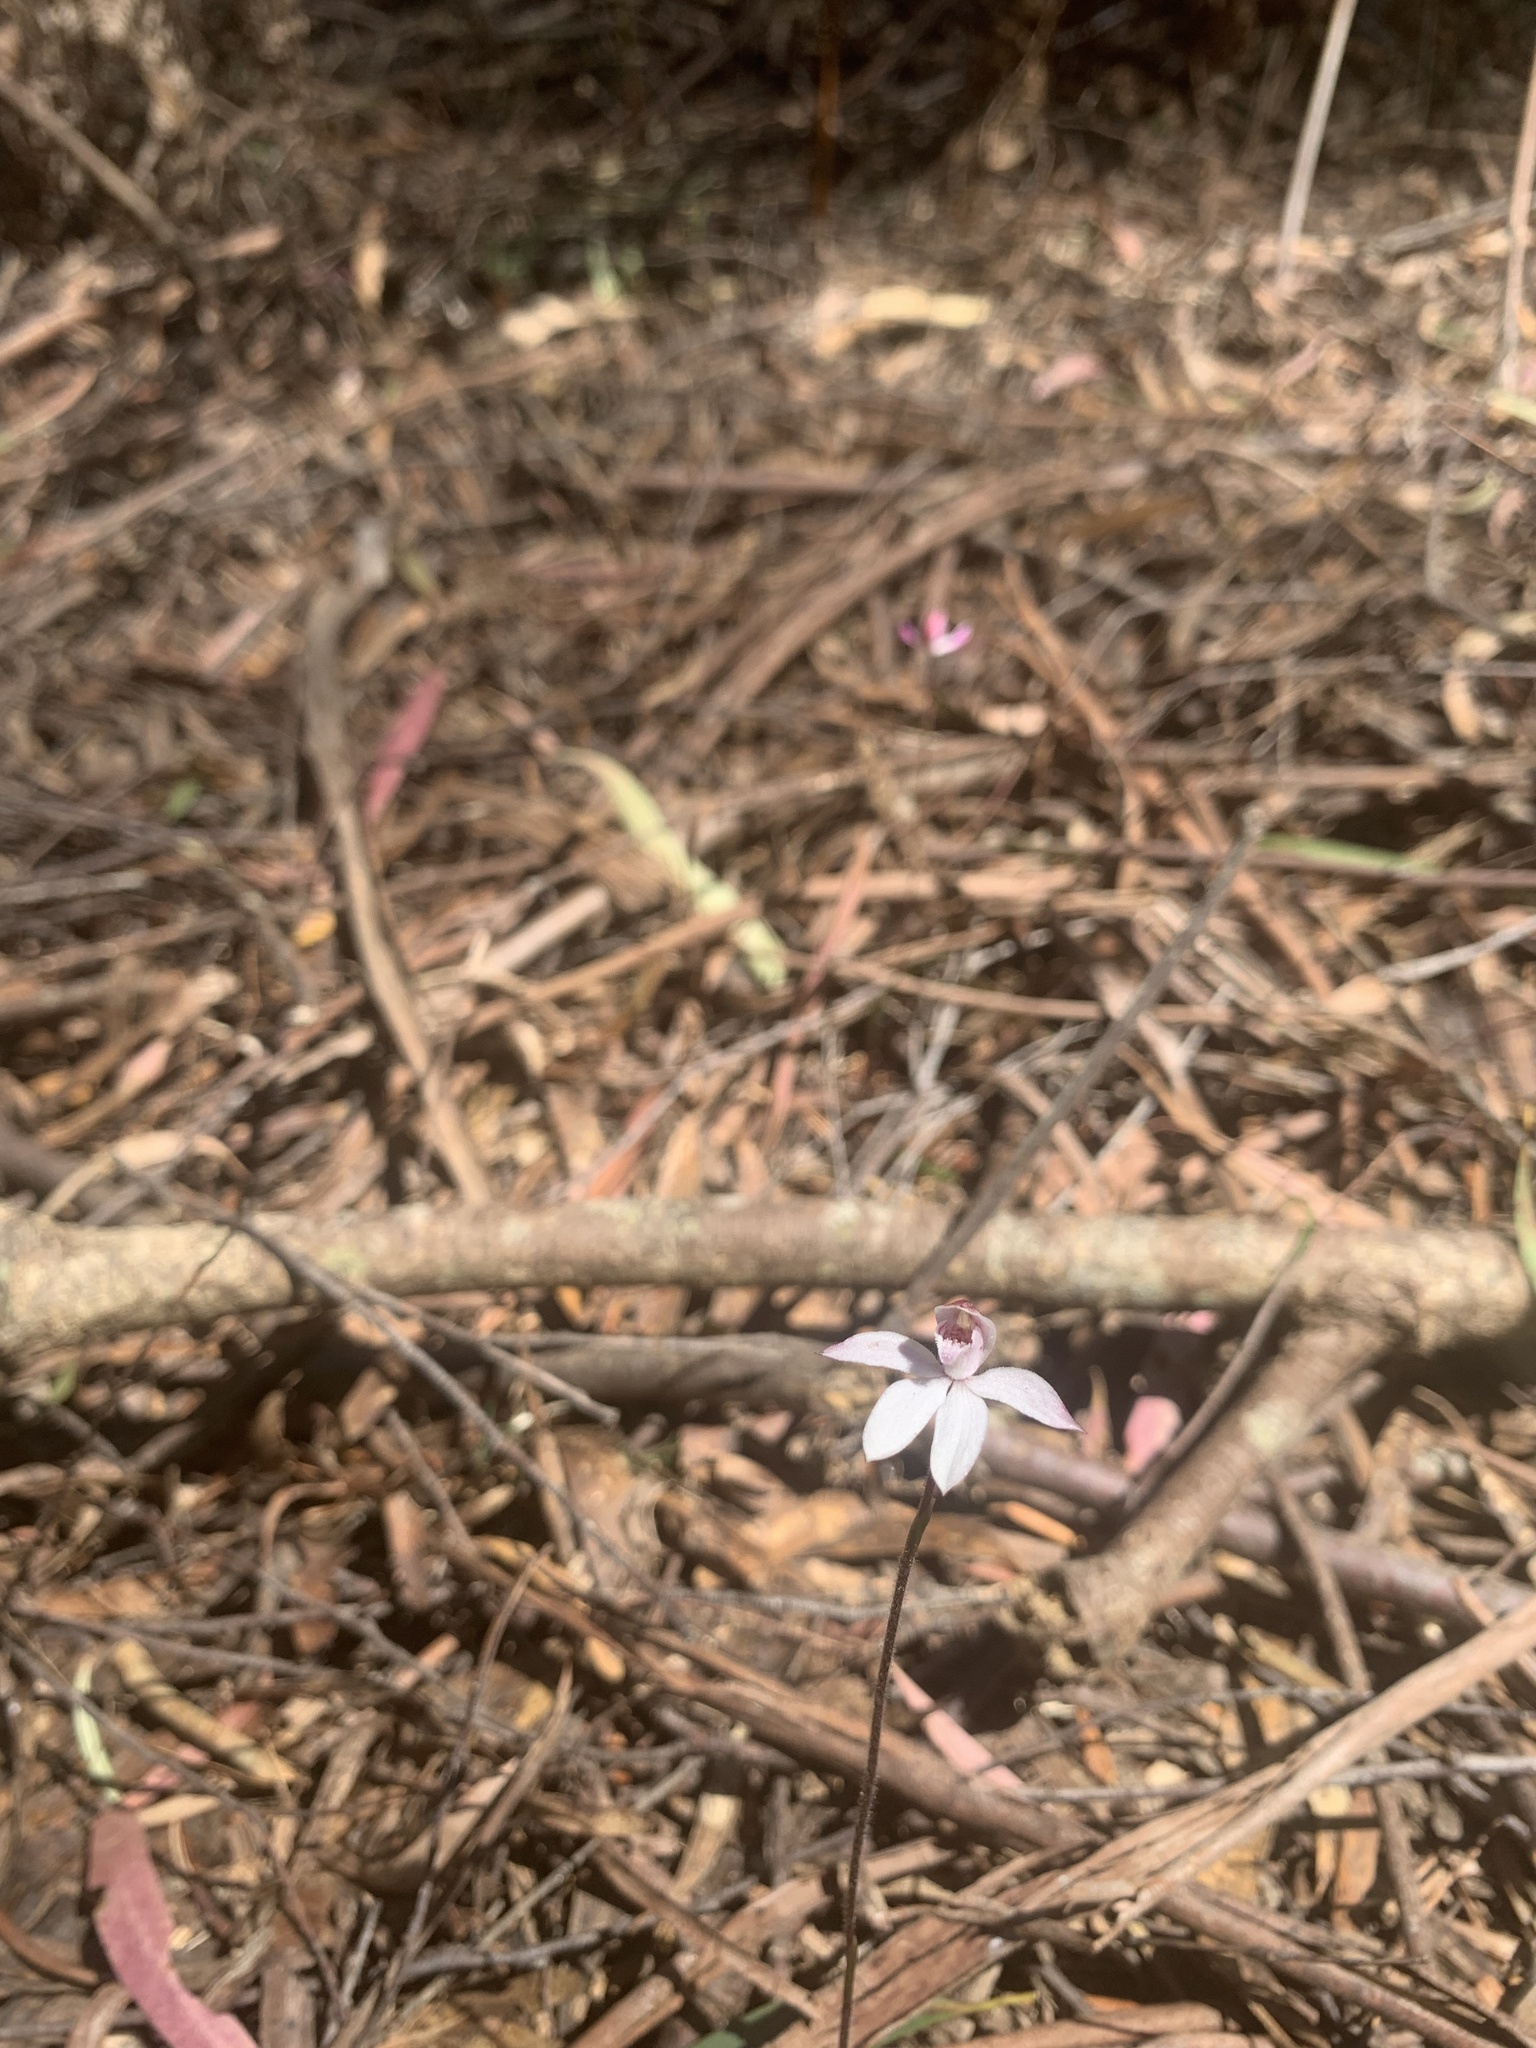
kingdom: Plantae
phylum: Tracheophyta
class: Liliopsida
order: Asparagales
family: Orchidaceae
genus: Caladenia
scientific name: Caladenia cracens
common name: Neat caps
